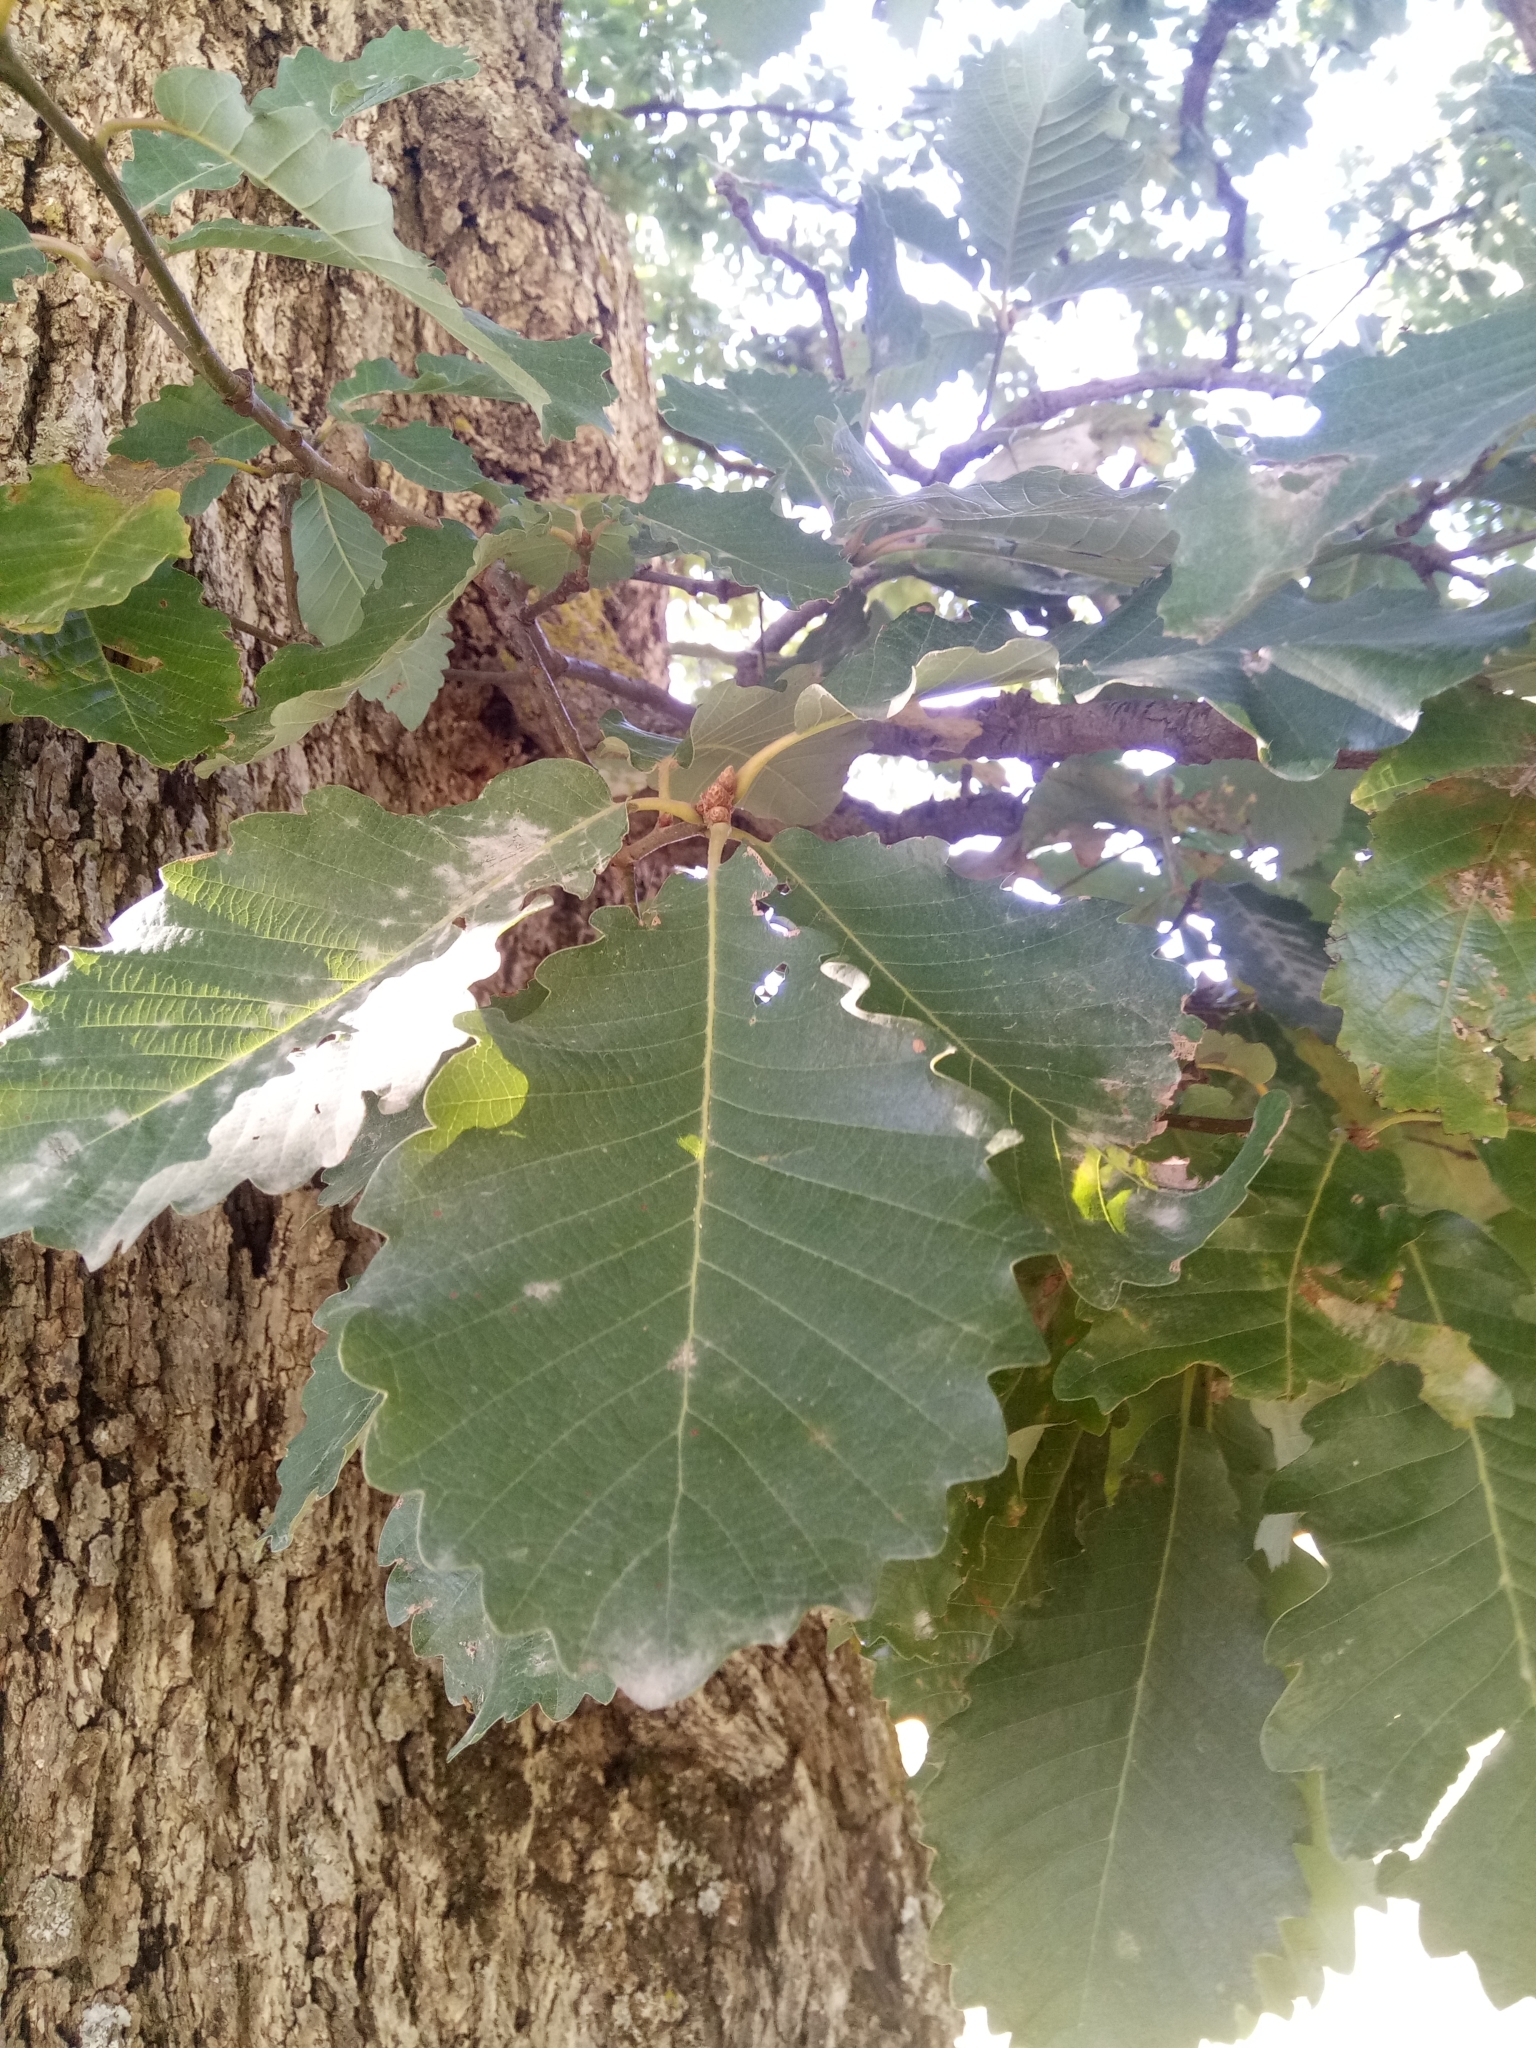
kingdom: Plantae
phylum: Tracheophyta
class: Magnoliopsida
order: Fagales
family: Fagaceae
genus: Quercus
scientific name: Quercus canariensis
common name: Algerian oak
